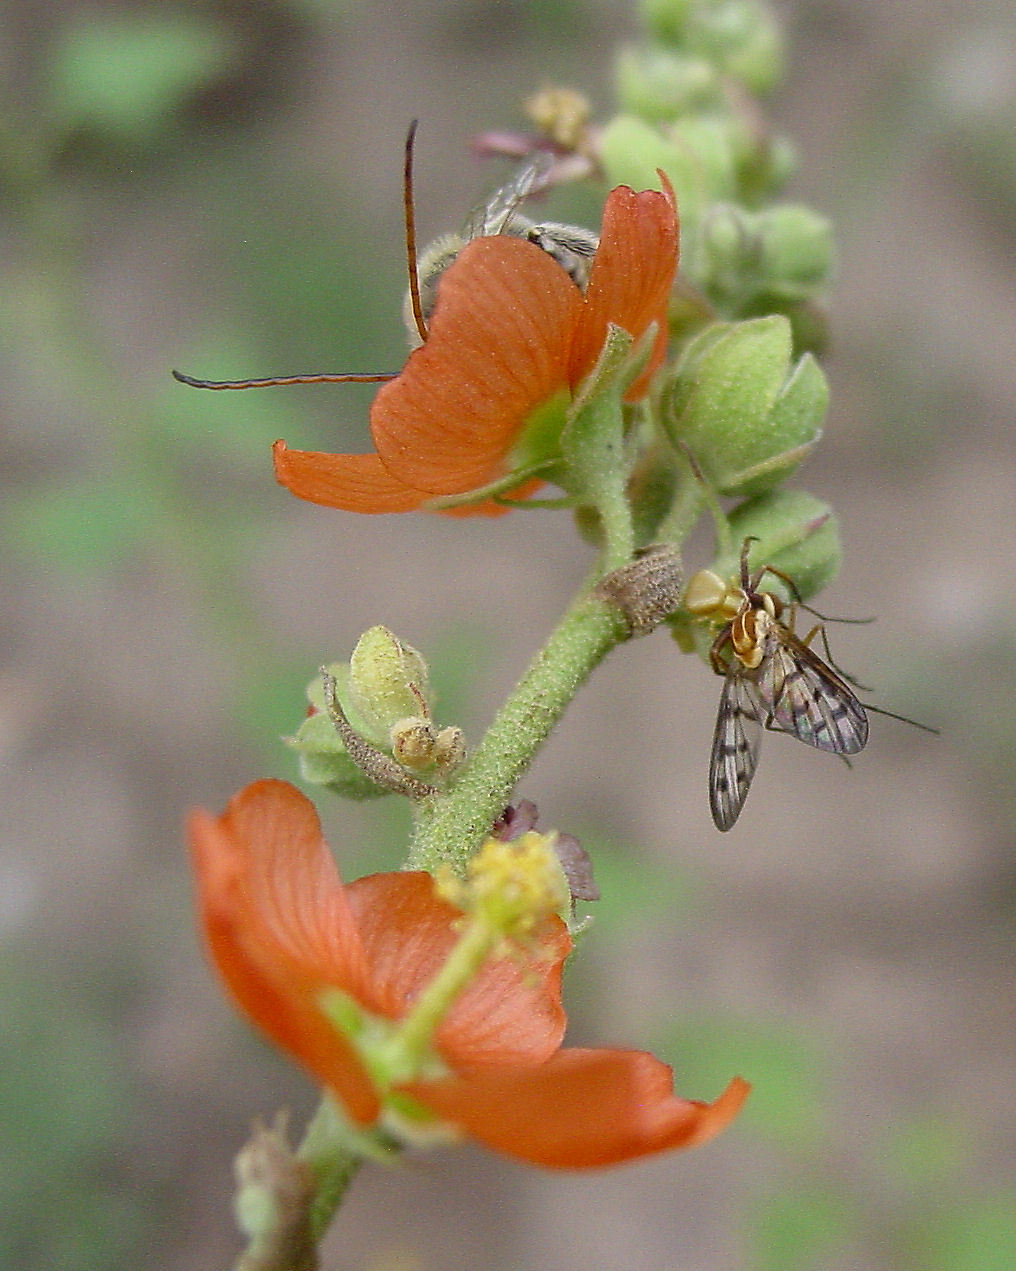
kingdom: Animalia
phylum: Arthropoda
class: Arachnida
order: Araneae
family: Thomisidae
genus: Misumenoides
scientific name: Misumenoides formosipes
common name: White-banded crab spider
